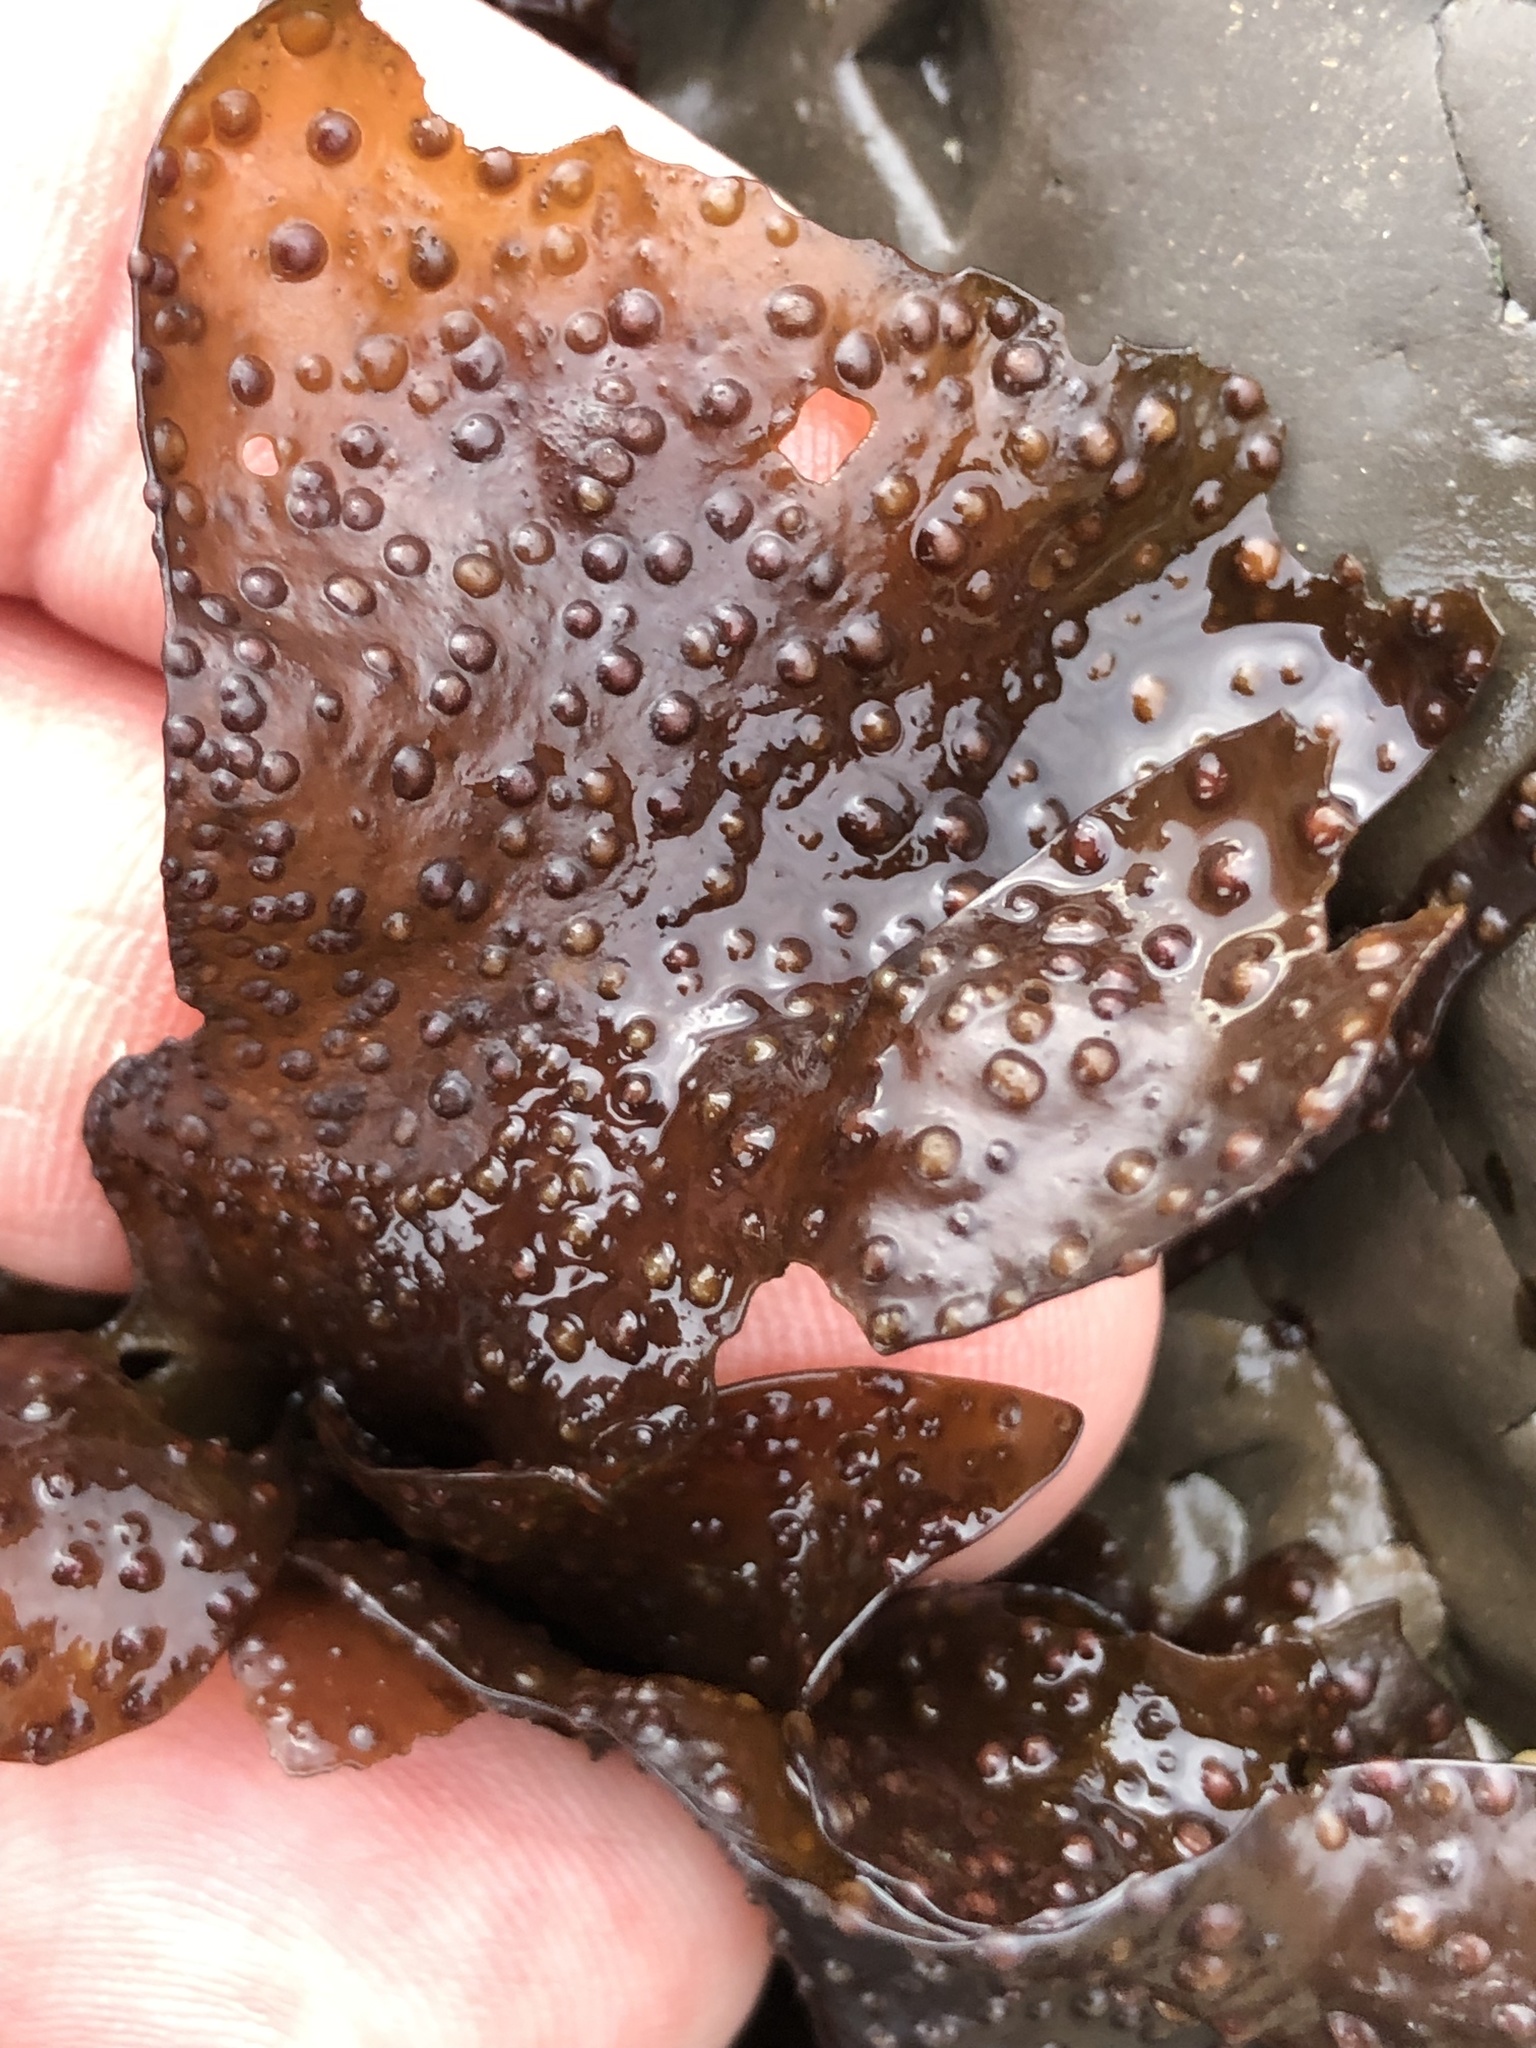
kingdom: Plantae
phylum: Rhodophyta
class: Florideophyceae
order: Gigartinales
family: Gigartinaceae
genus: Mazzaella
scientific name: Mazzaella oregona
